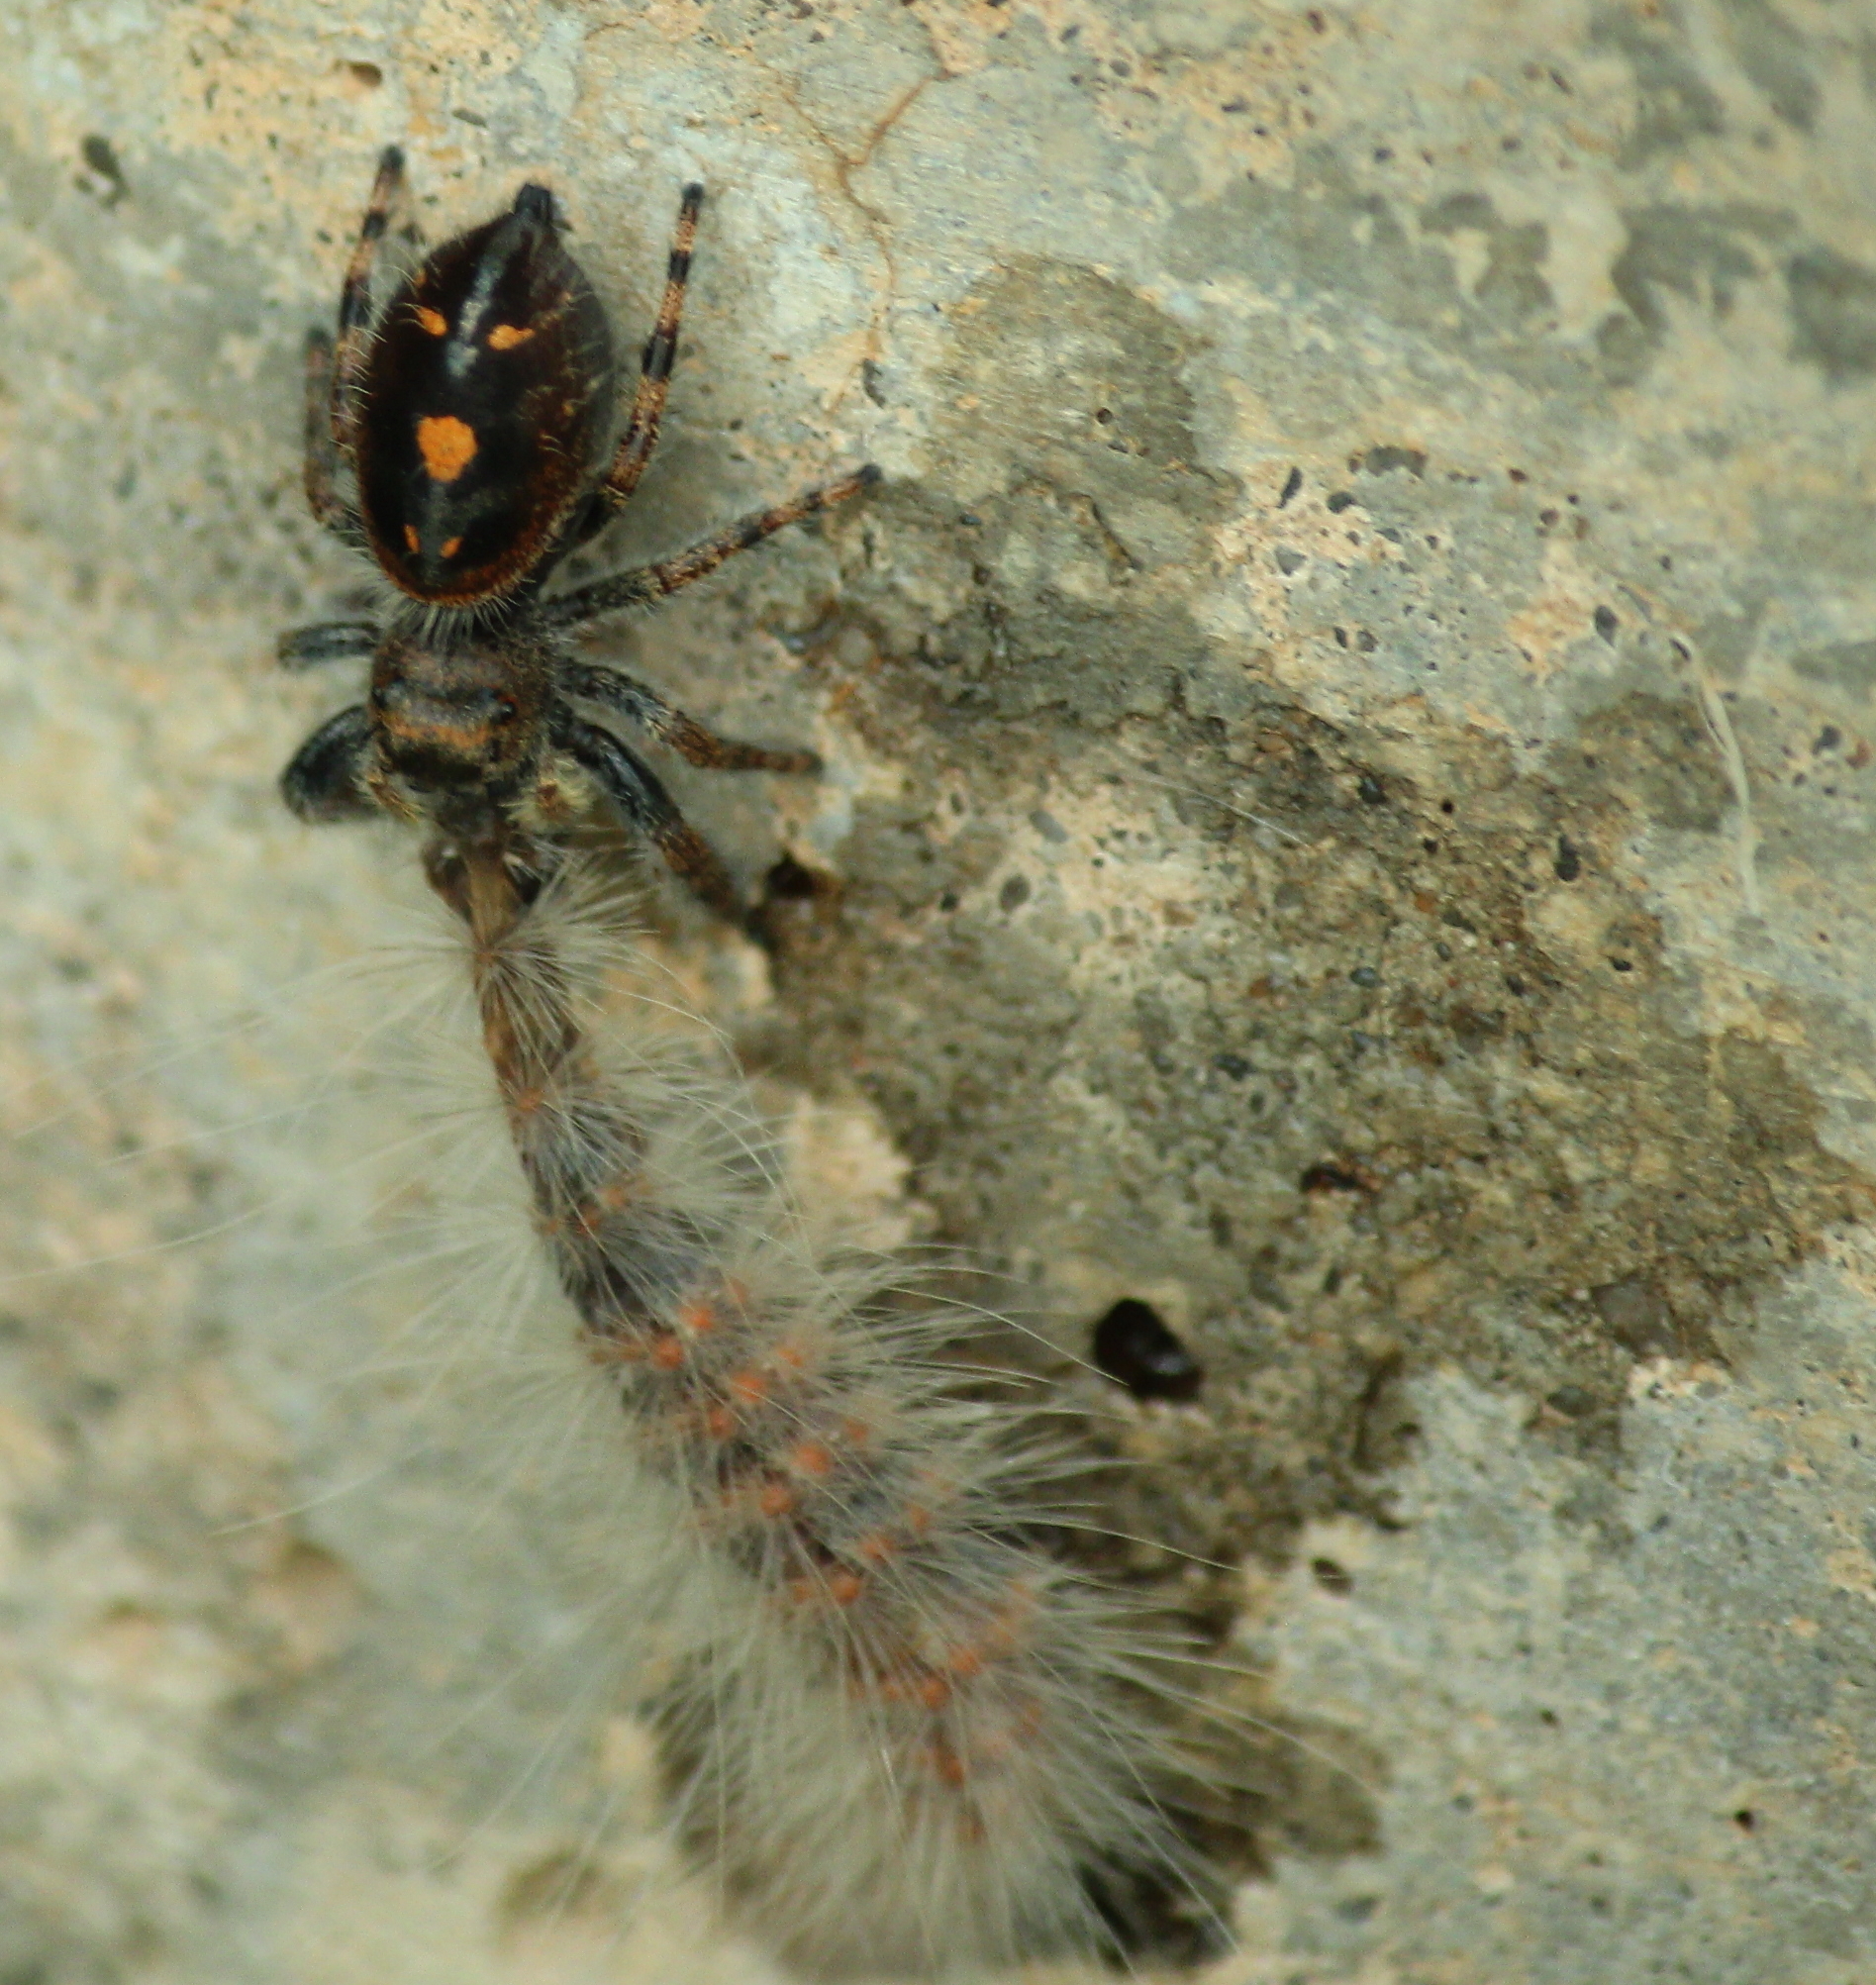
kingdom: Animalia
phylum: Arthropoda
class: Arachnida
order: Araneae
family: Salticidae
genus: Phidippus
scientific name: Phidippus audax
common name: Bold jumper
